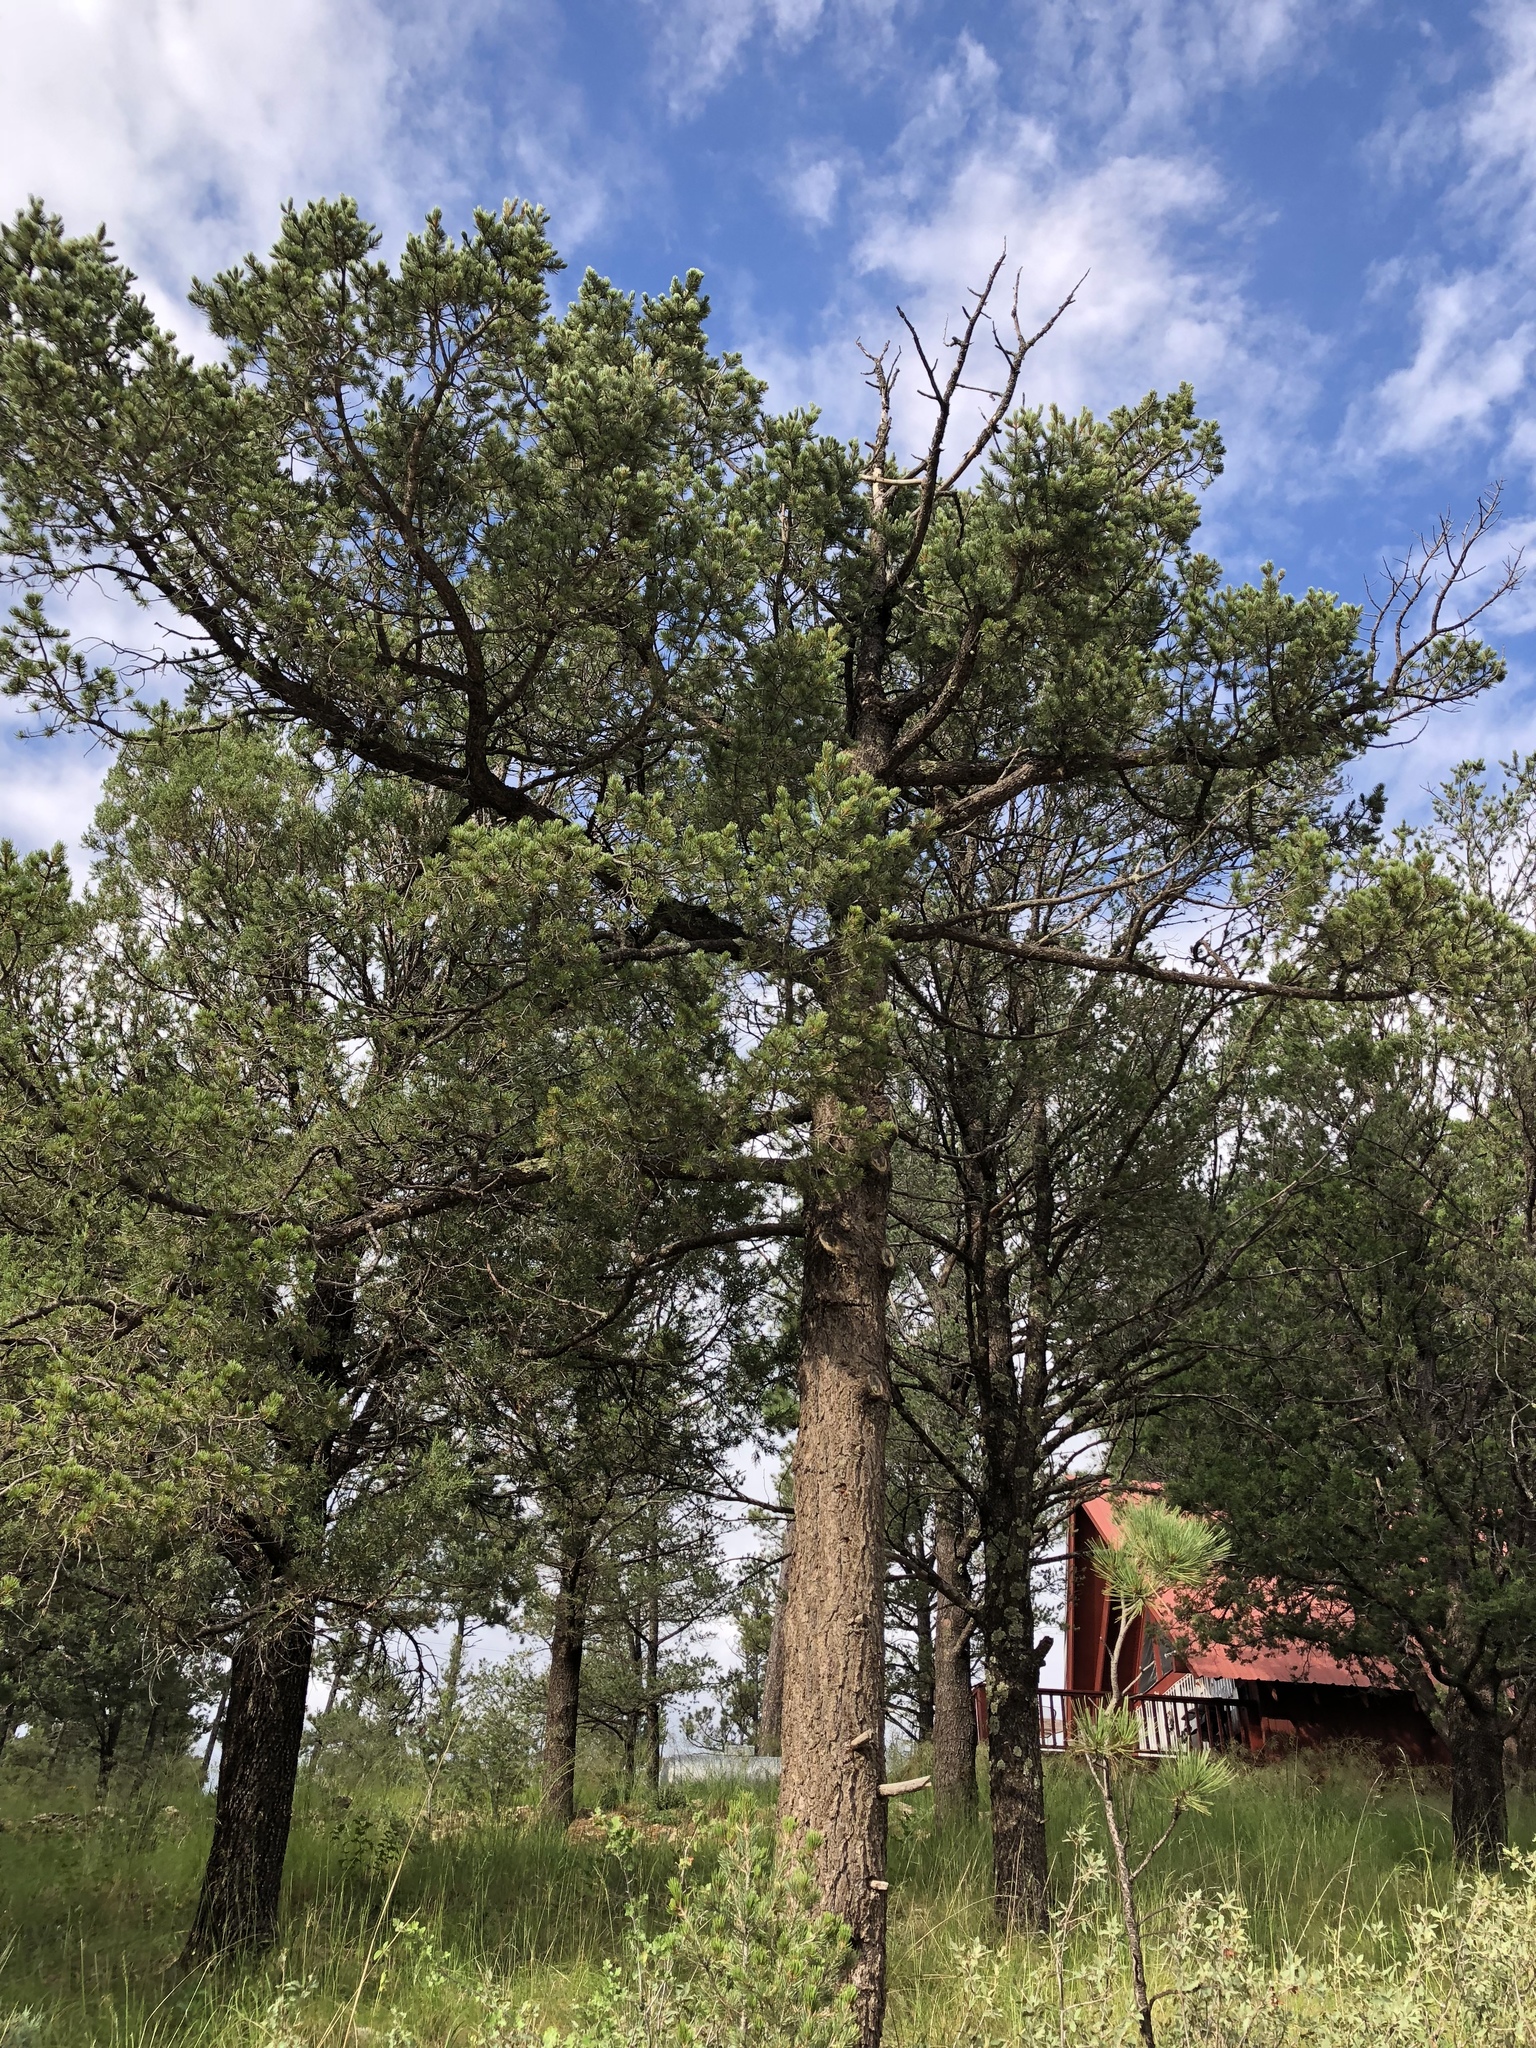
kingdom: Plantae
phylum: Tracheophyta
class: Pinopsida
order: Pinales
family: Pinaceae
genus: Pinus
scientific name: Pinus edulis
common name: Colorado pinyon
